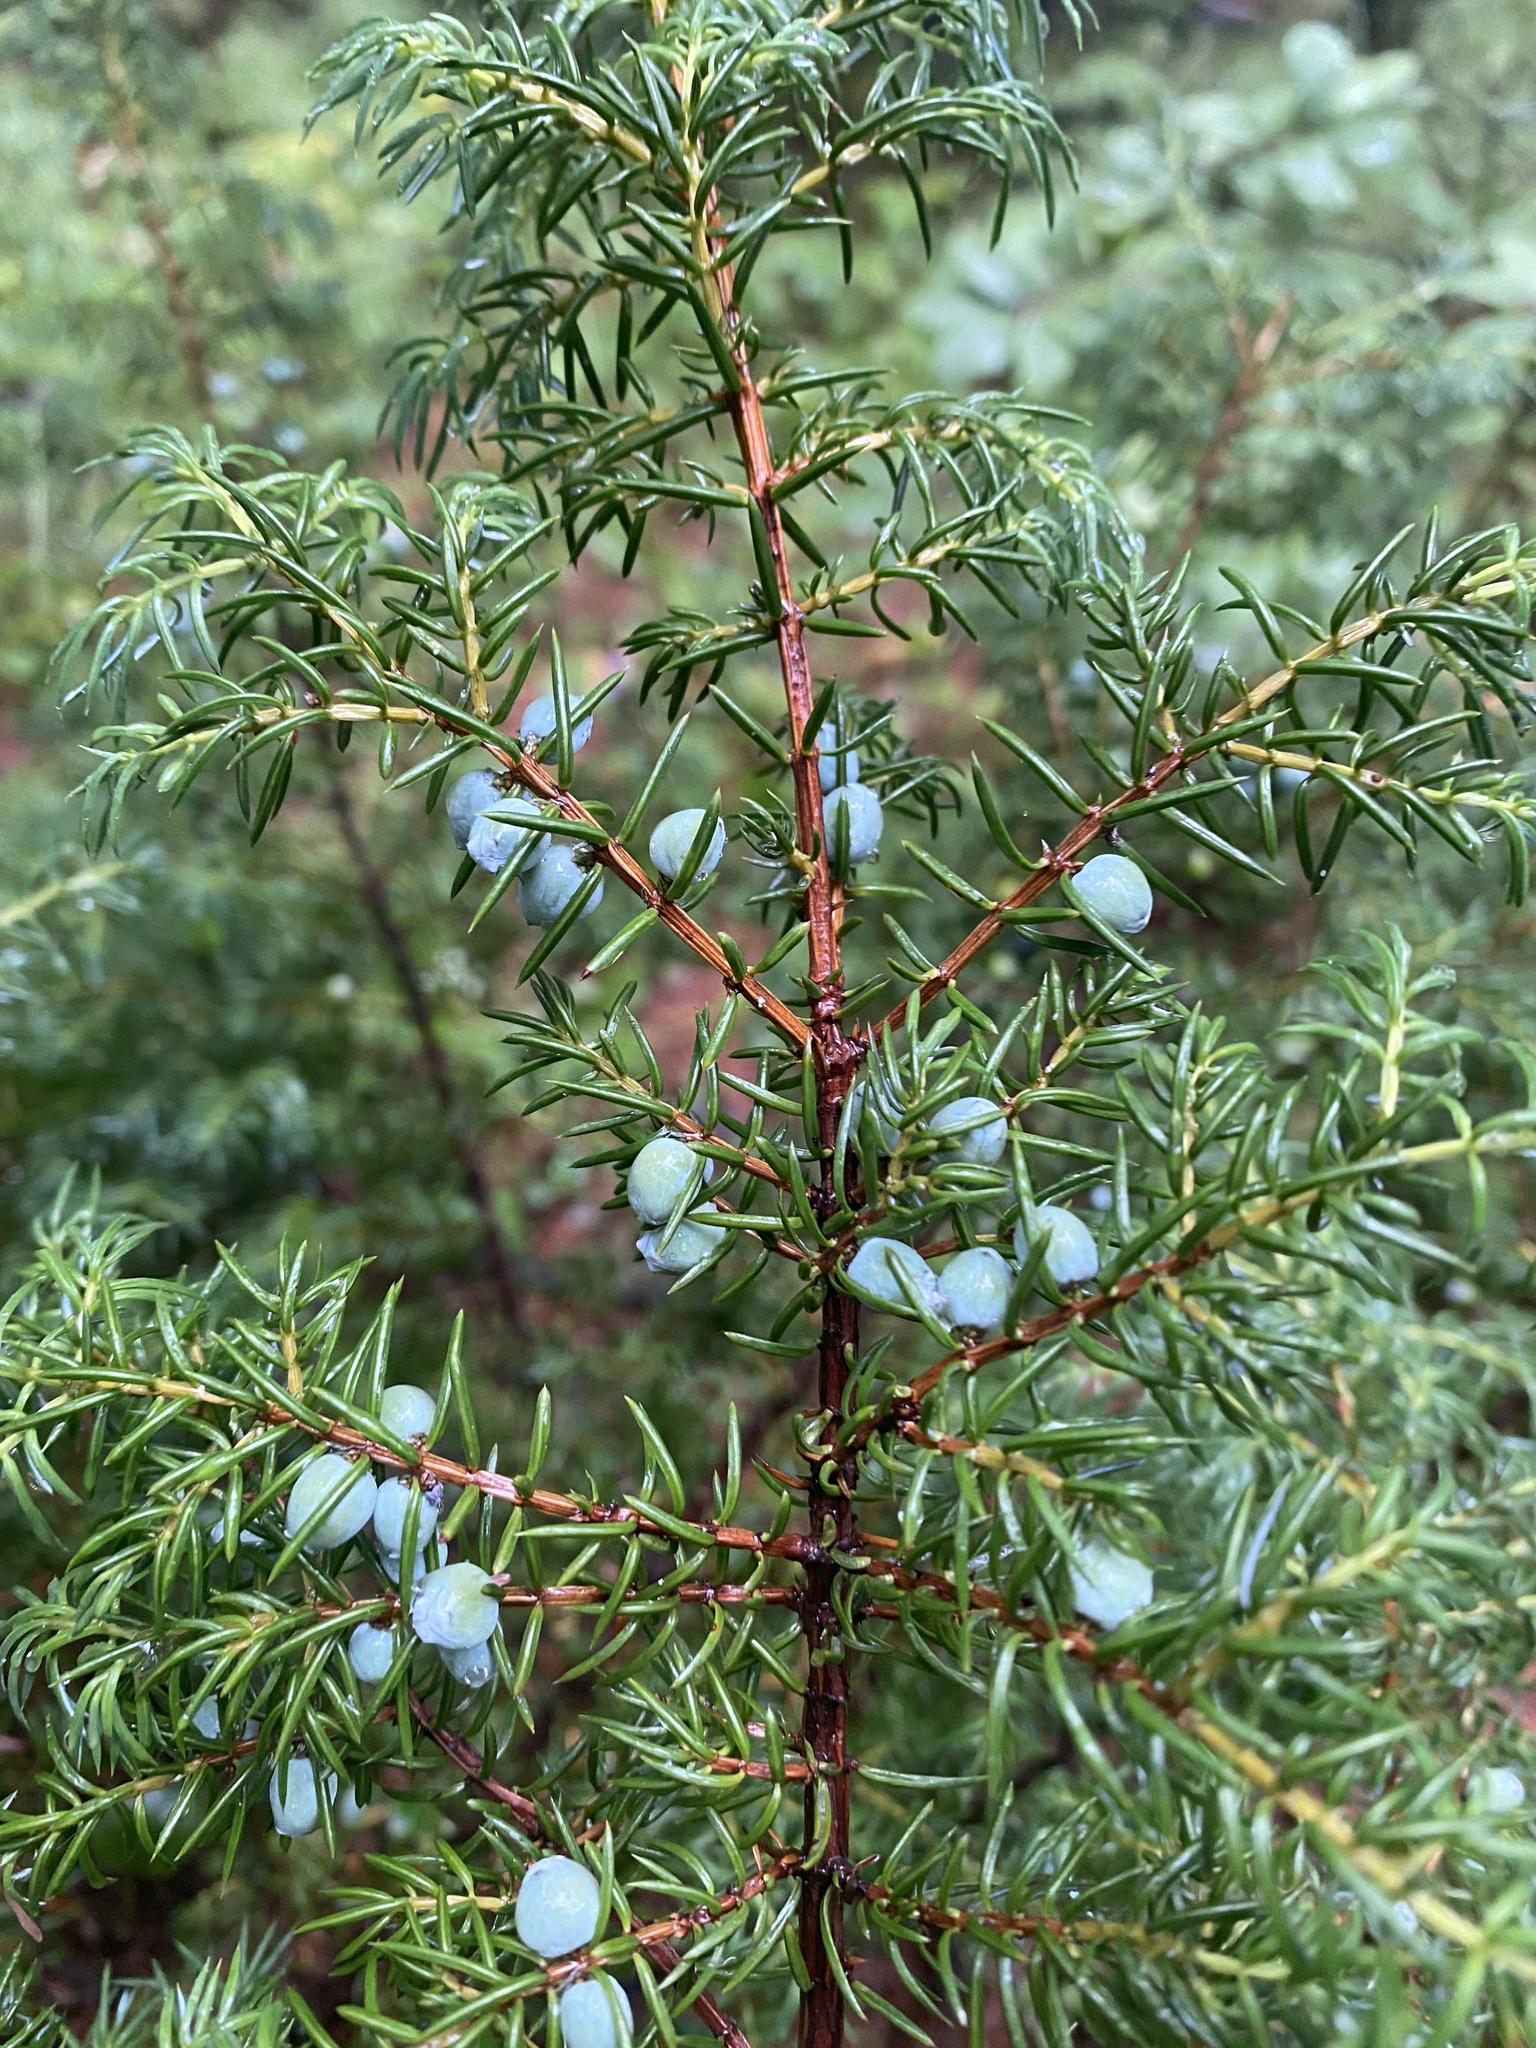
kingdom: Plantae
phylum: Tracheophyta
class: Pinopsida
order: Pinales
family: Cupressaceae
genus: Juniperus
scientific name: Juniperus communis
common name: Common juniper
